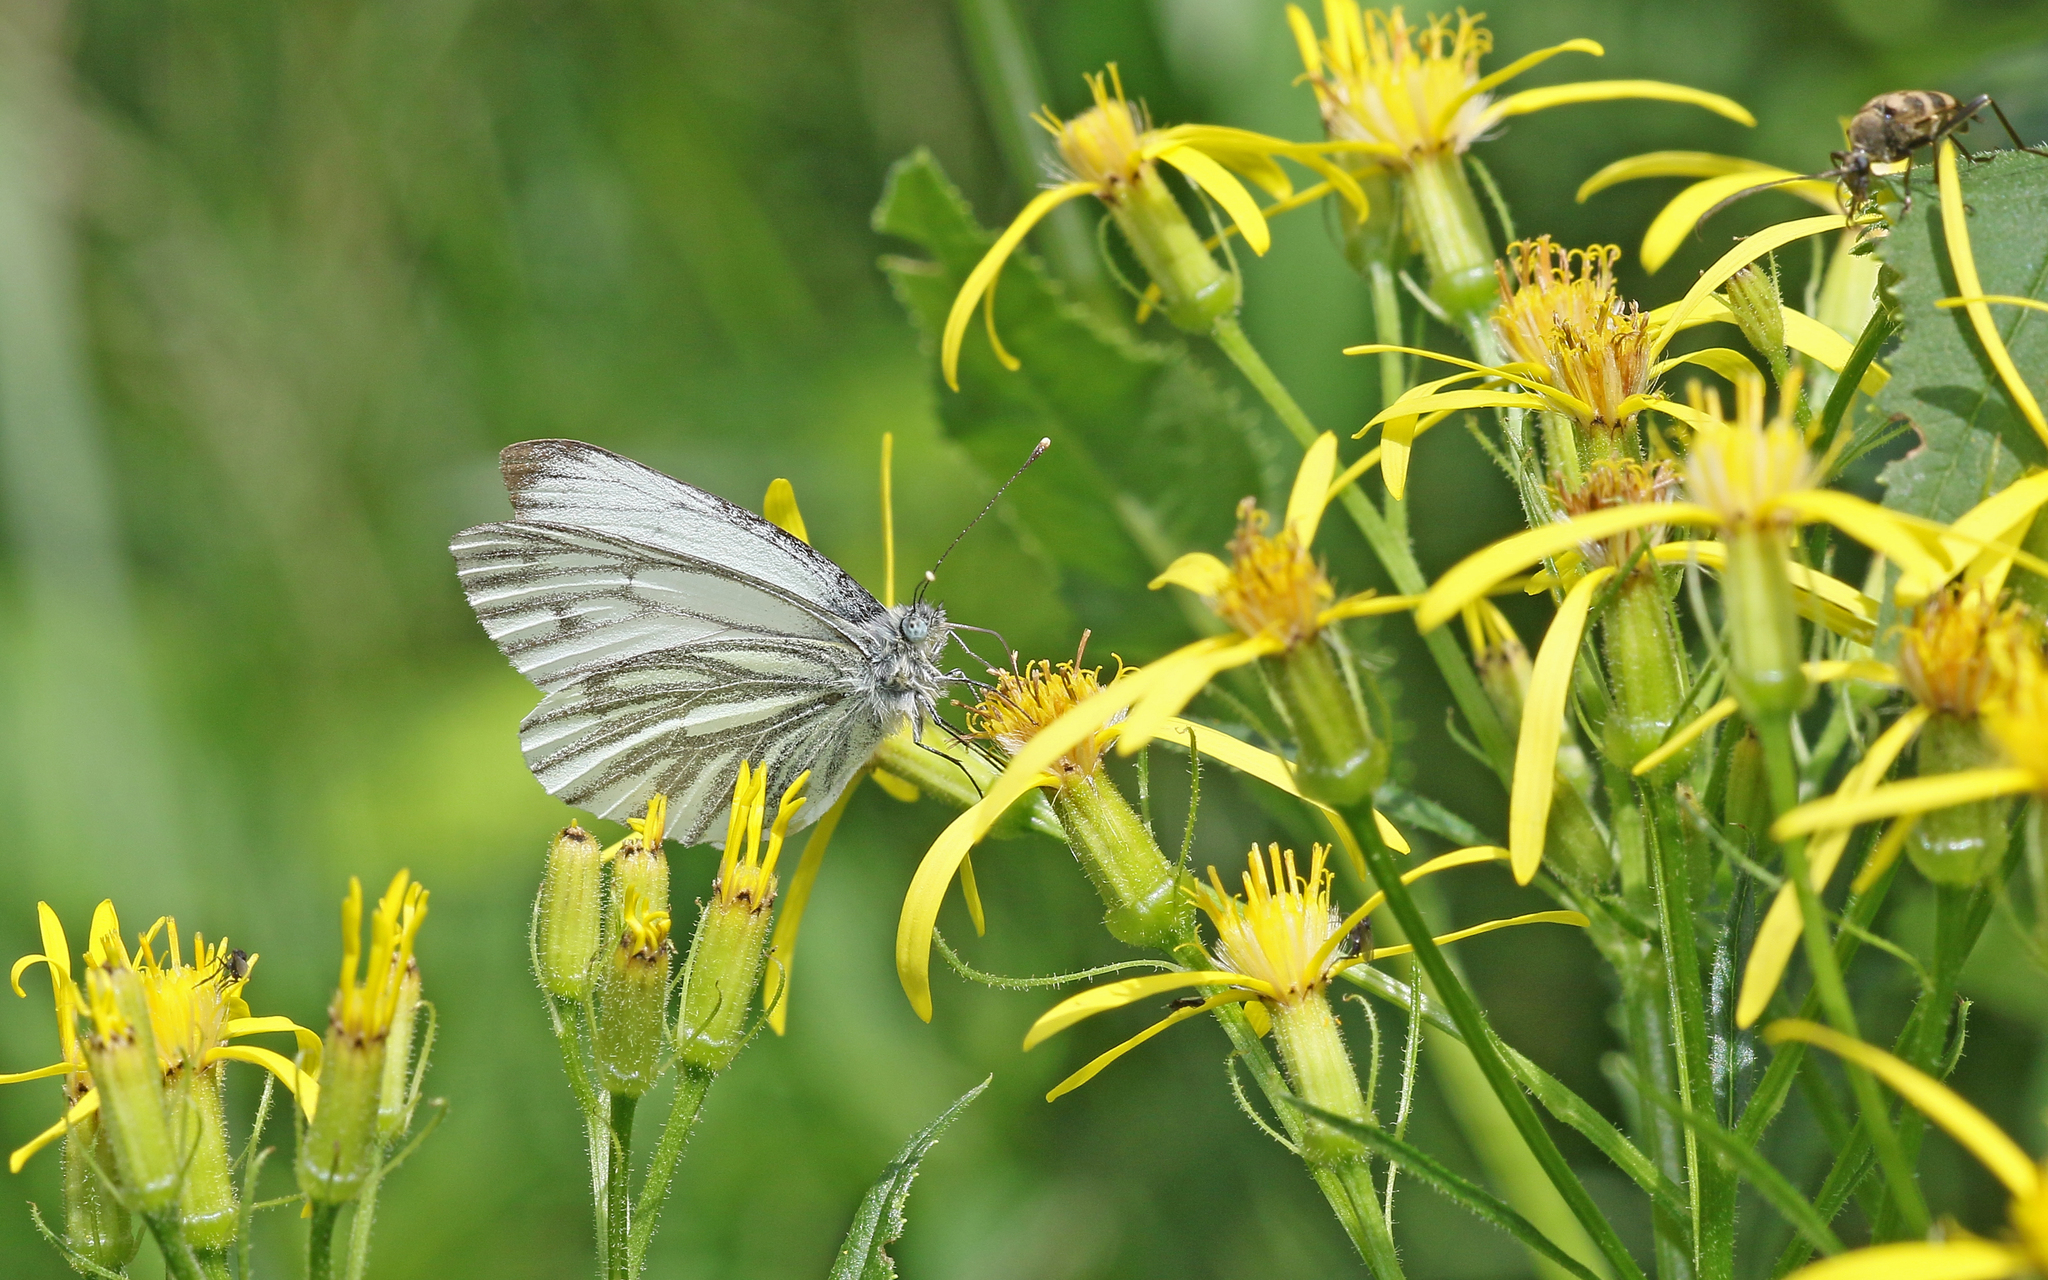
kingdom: Animalia
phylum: Arthropoda
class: Insecta
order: Lepidoptera
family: Pieridae
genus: Pieris
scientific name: Pieris napi
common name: Green-veined white
